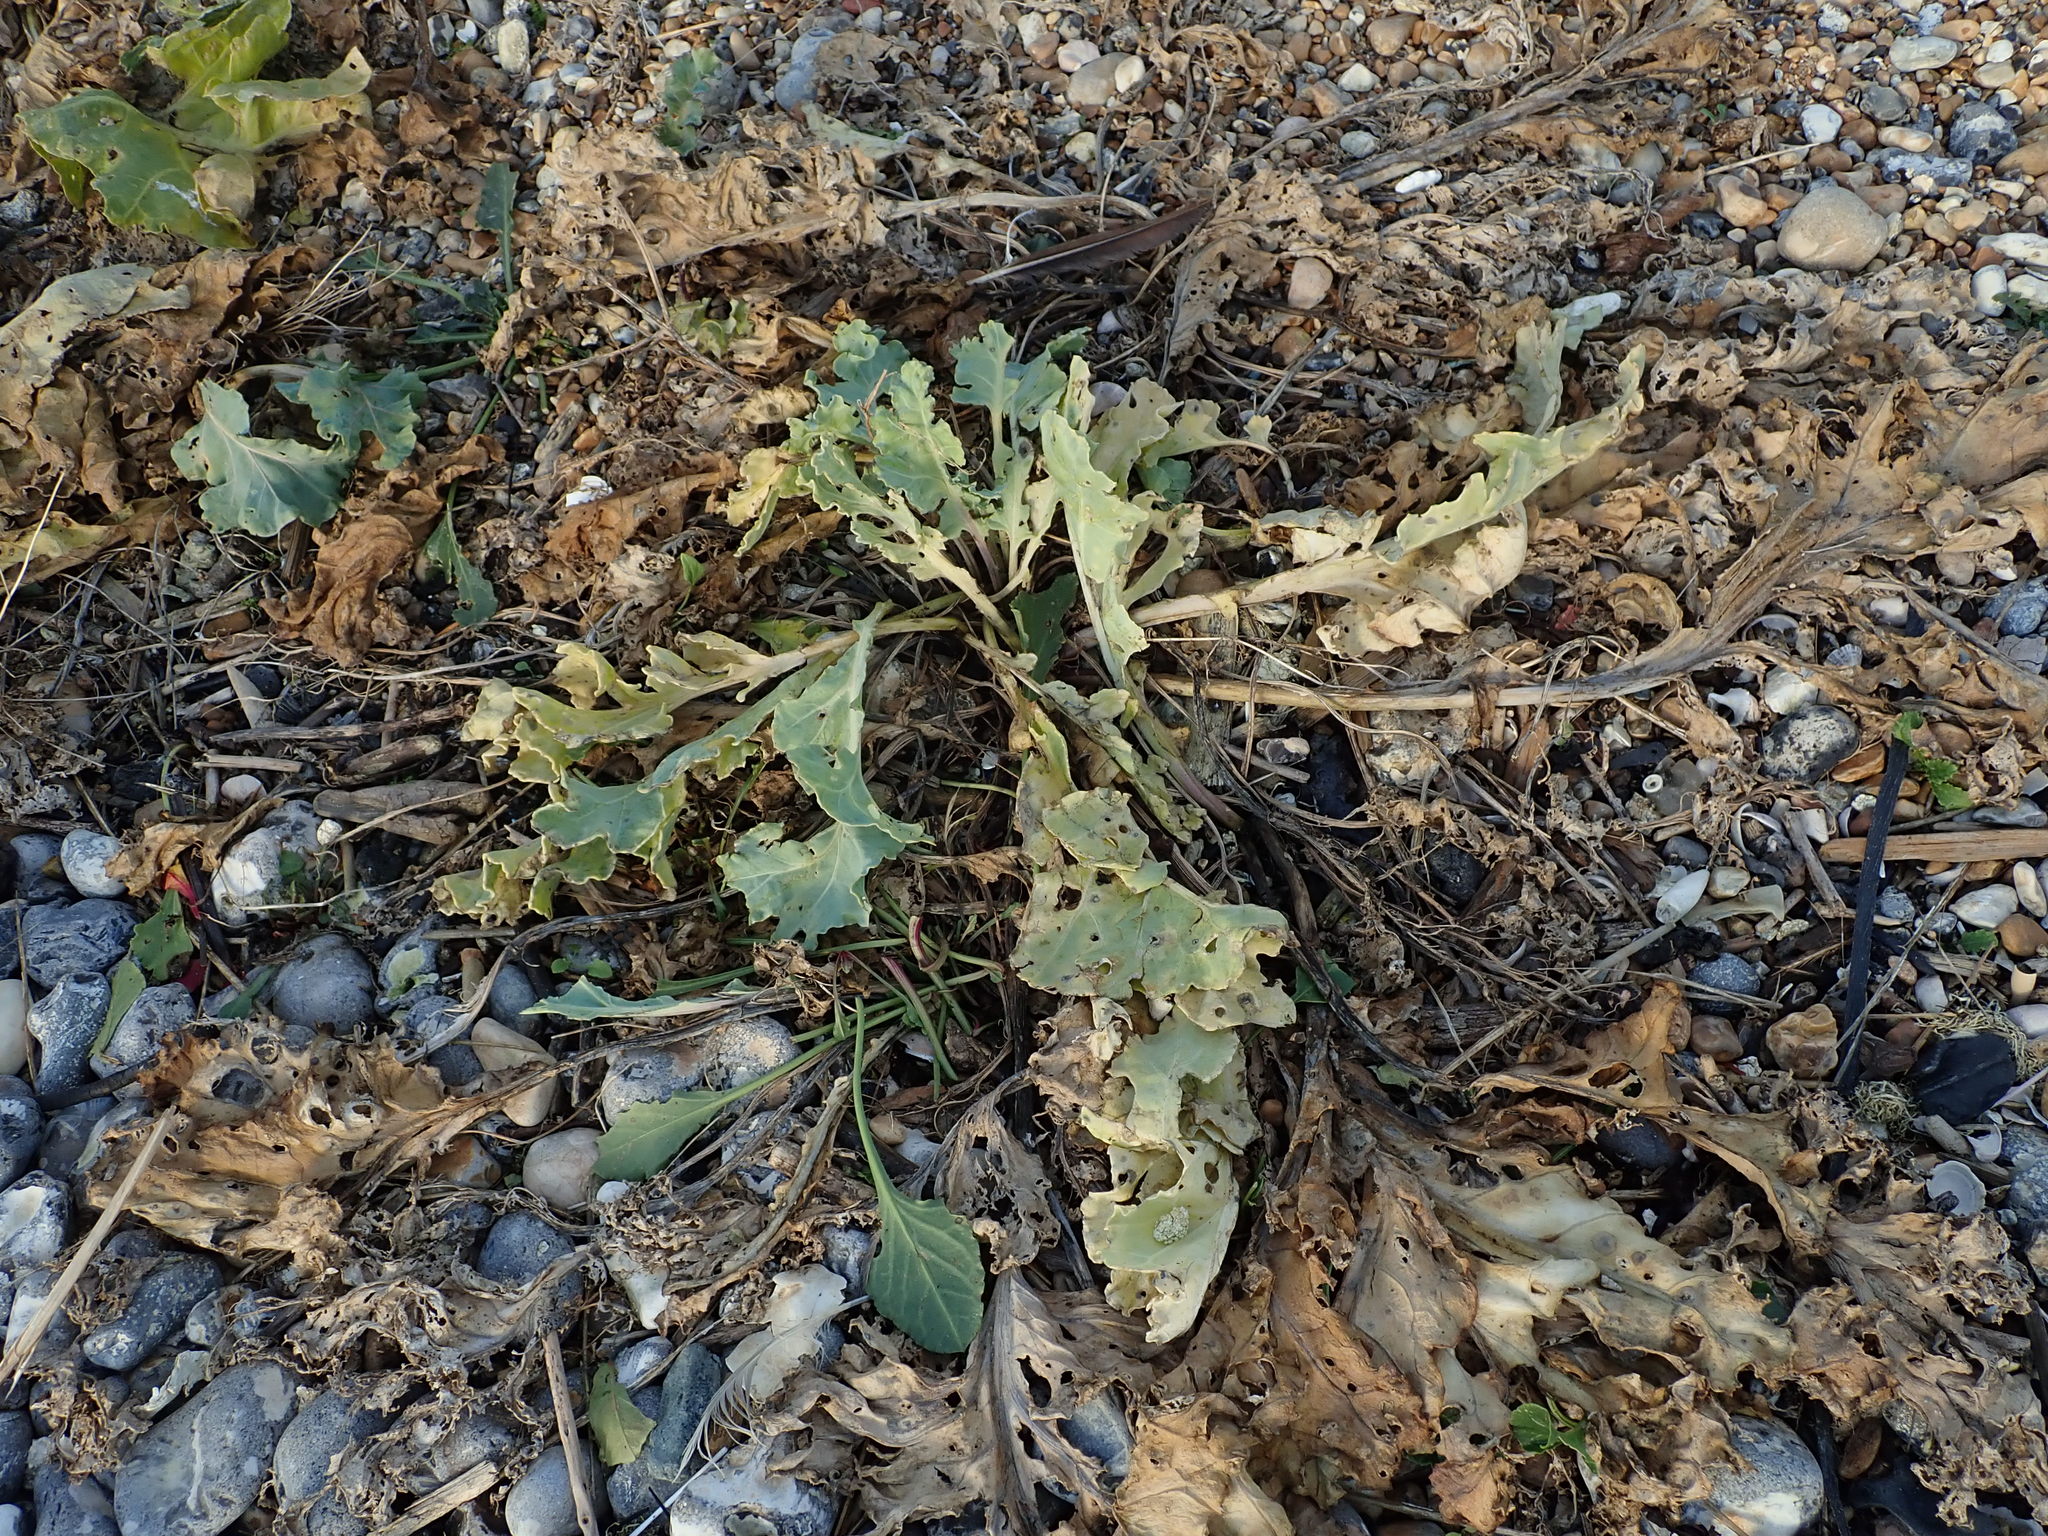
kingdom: Plantae
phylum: Tracheophyta
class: Magnoliopsida
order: Brassicales
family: Brassicaceae
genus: Crambe
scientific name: Crambe maritima
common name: Sea-kale
